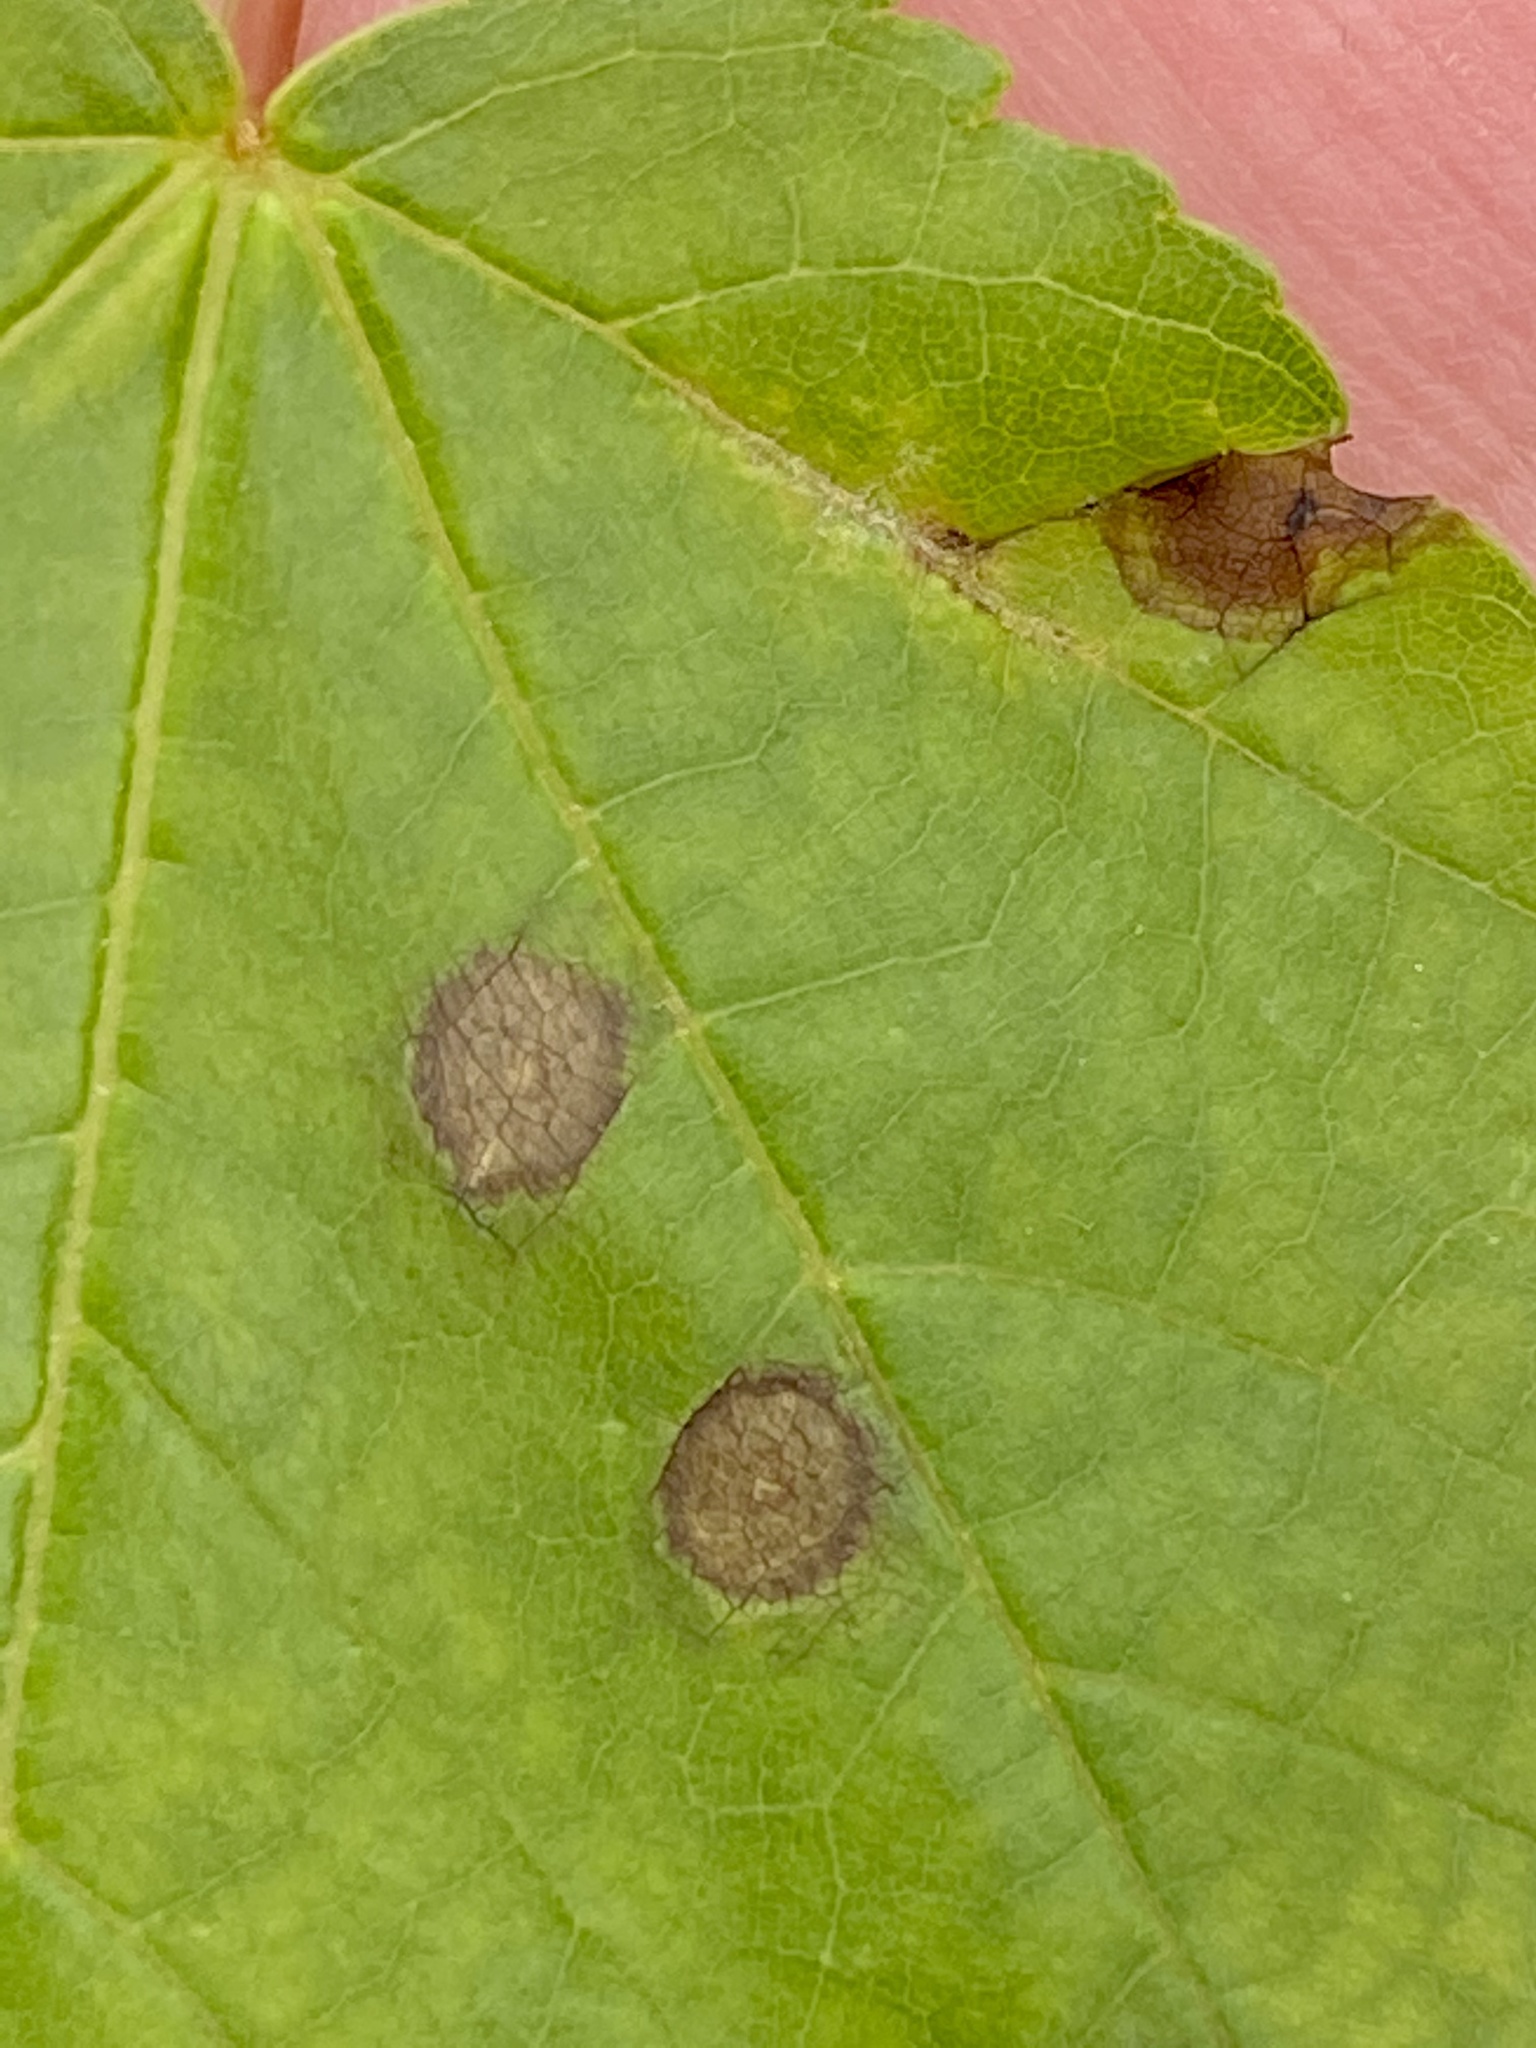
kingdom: Animalia
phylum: Arthropoda
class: Insecta
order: Diptera
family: Cecidomyiidae
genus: Acericecis
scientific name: Acericecis ocellaris
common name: Ocellate gall midge
